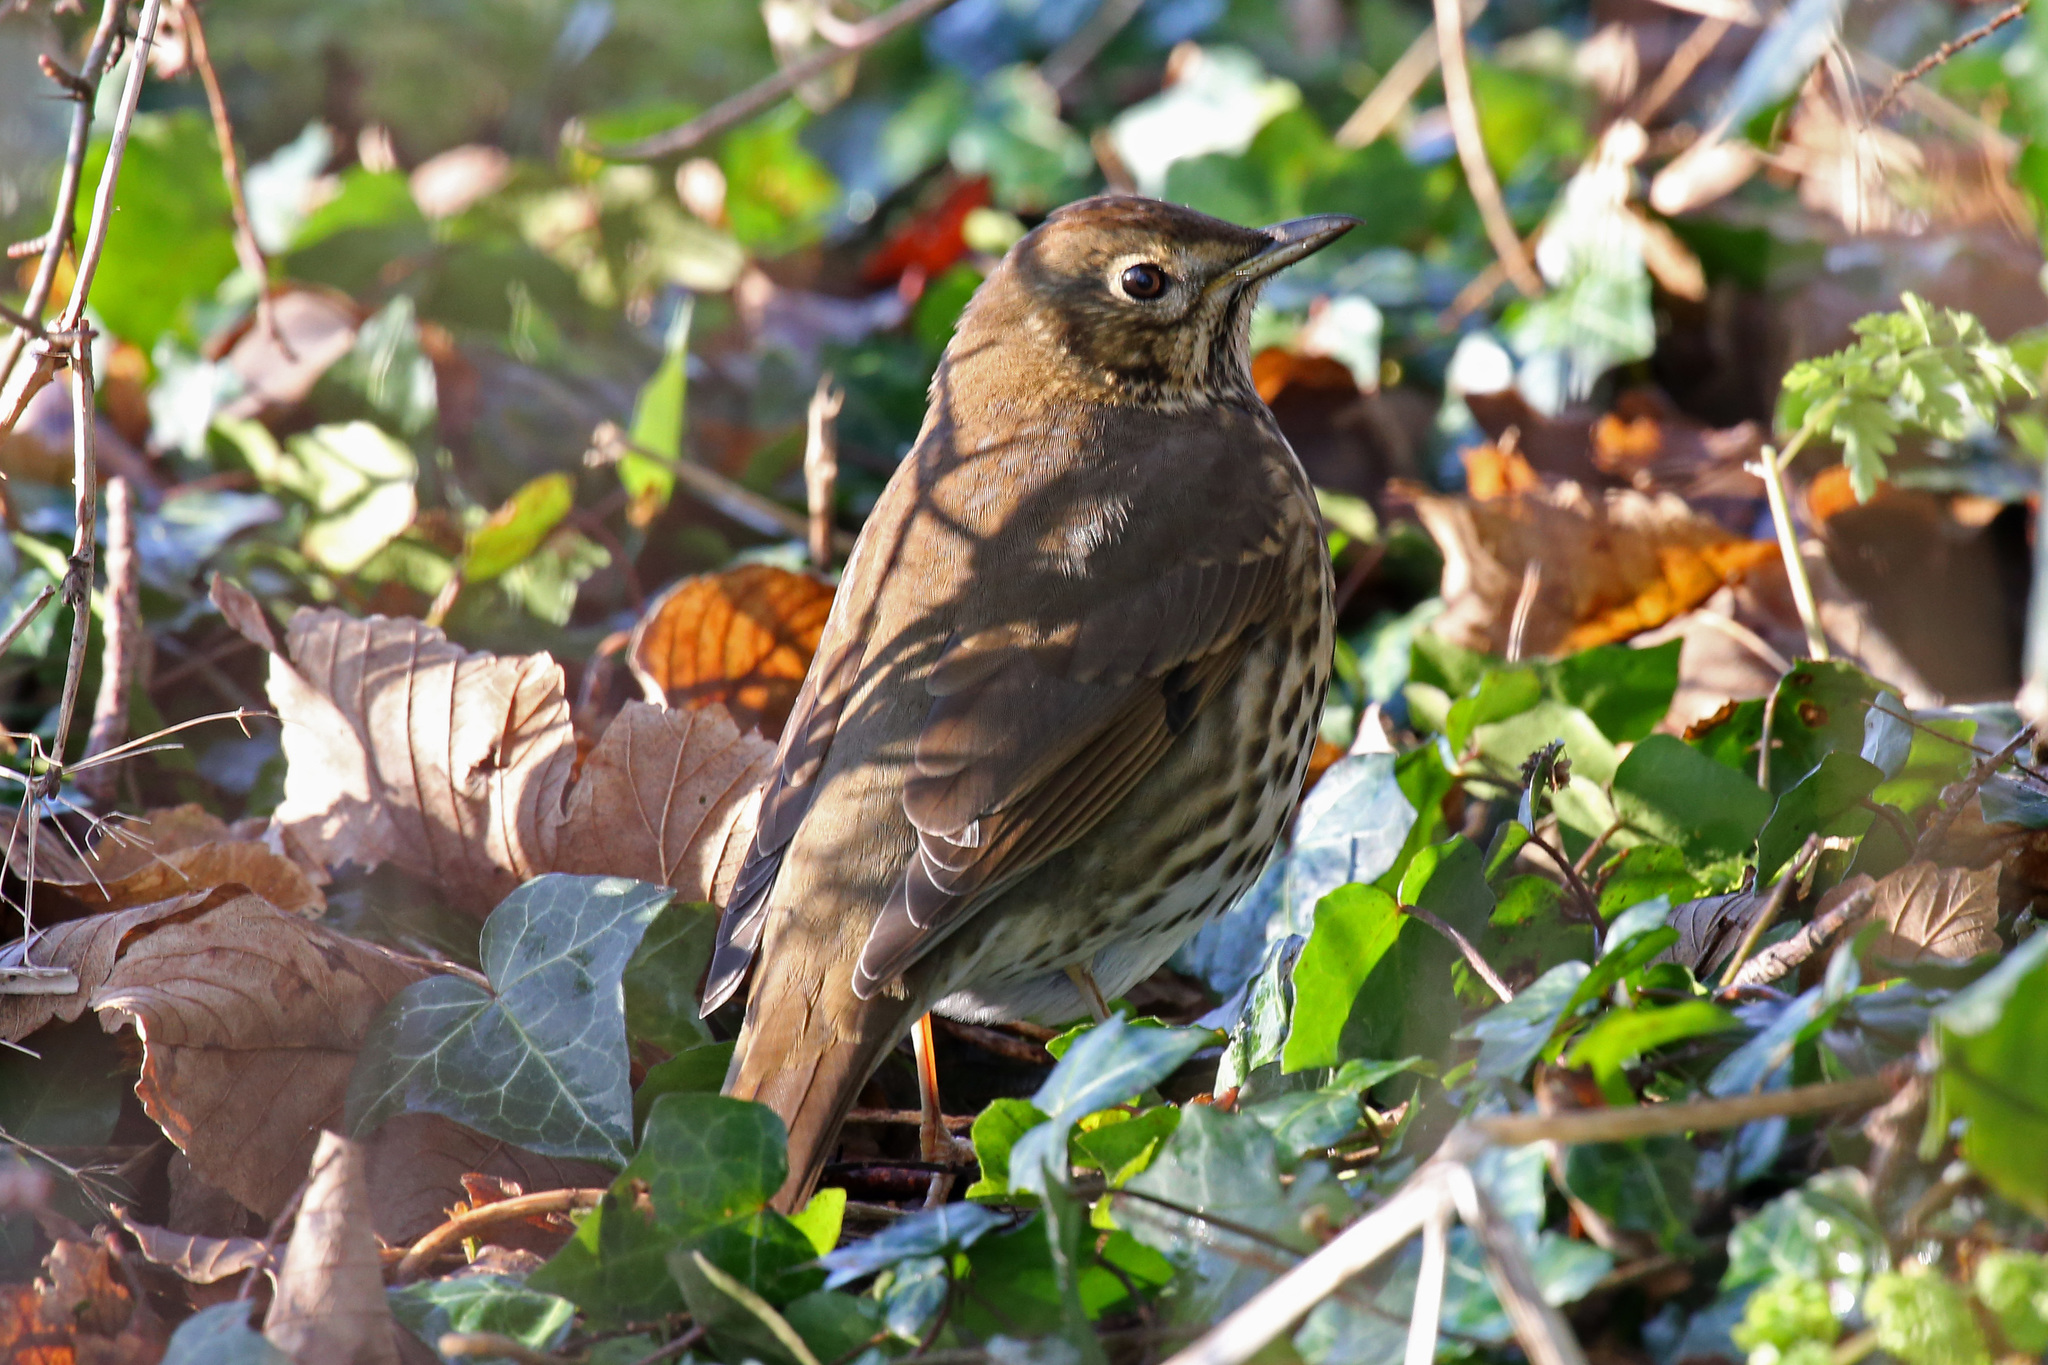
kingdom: Animalia
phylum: Chordata
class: Aves
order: Passeriformes
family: Turdidae
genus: Turdus
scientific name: Turdus philomelos
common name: Song thrush
